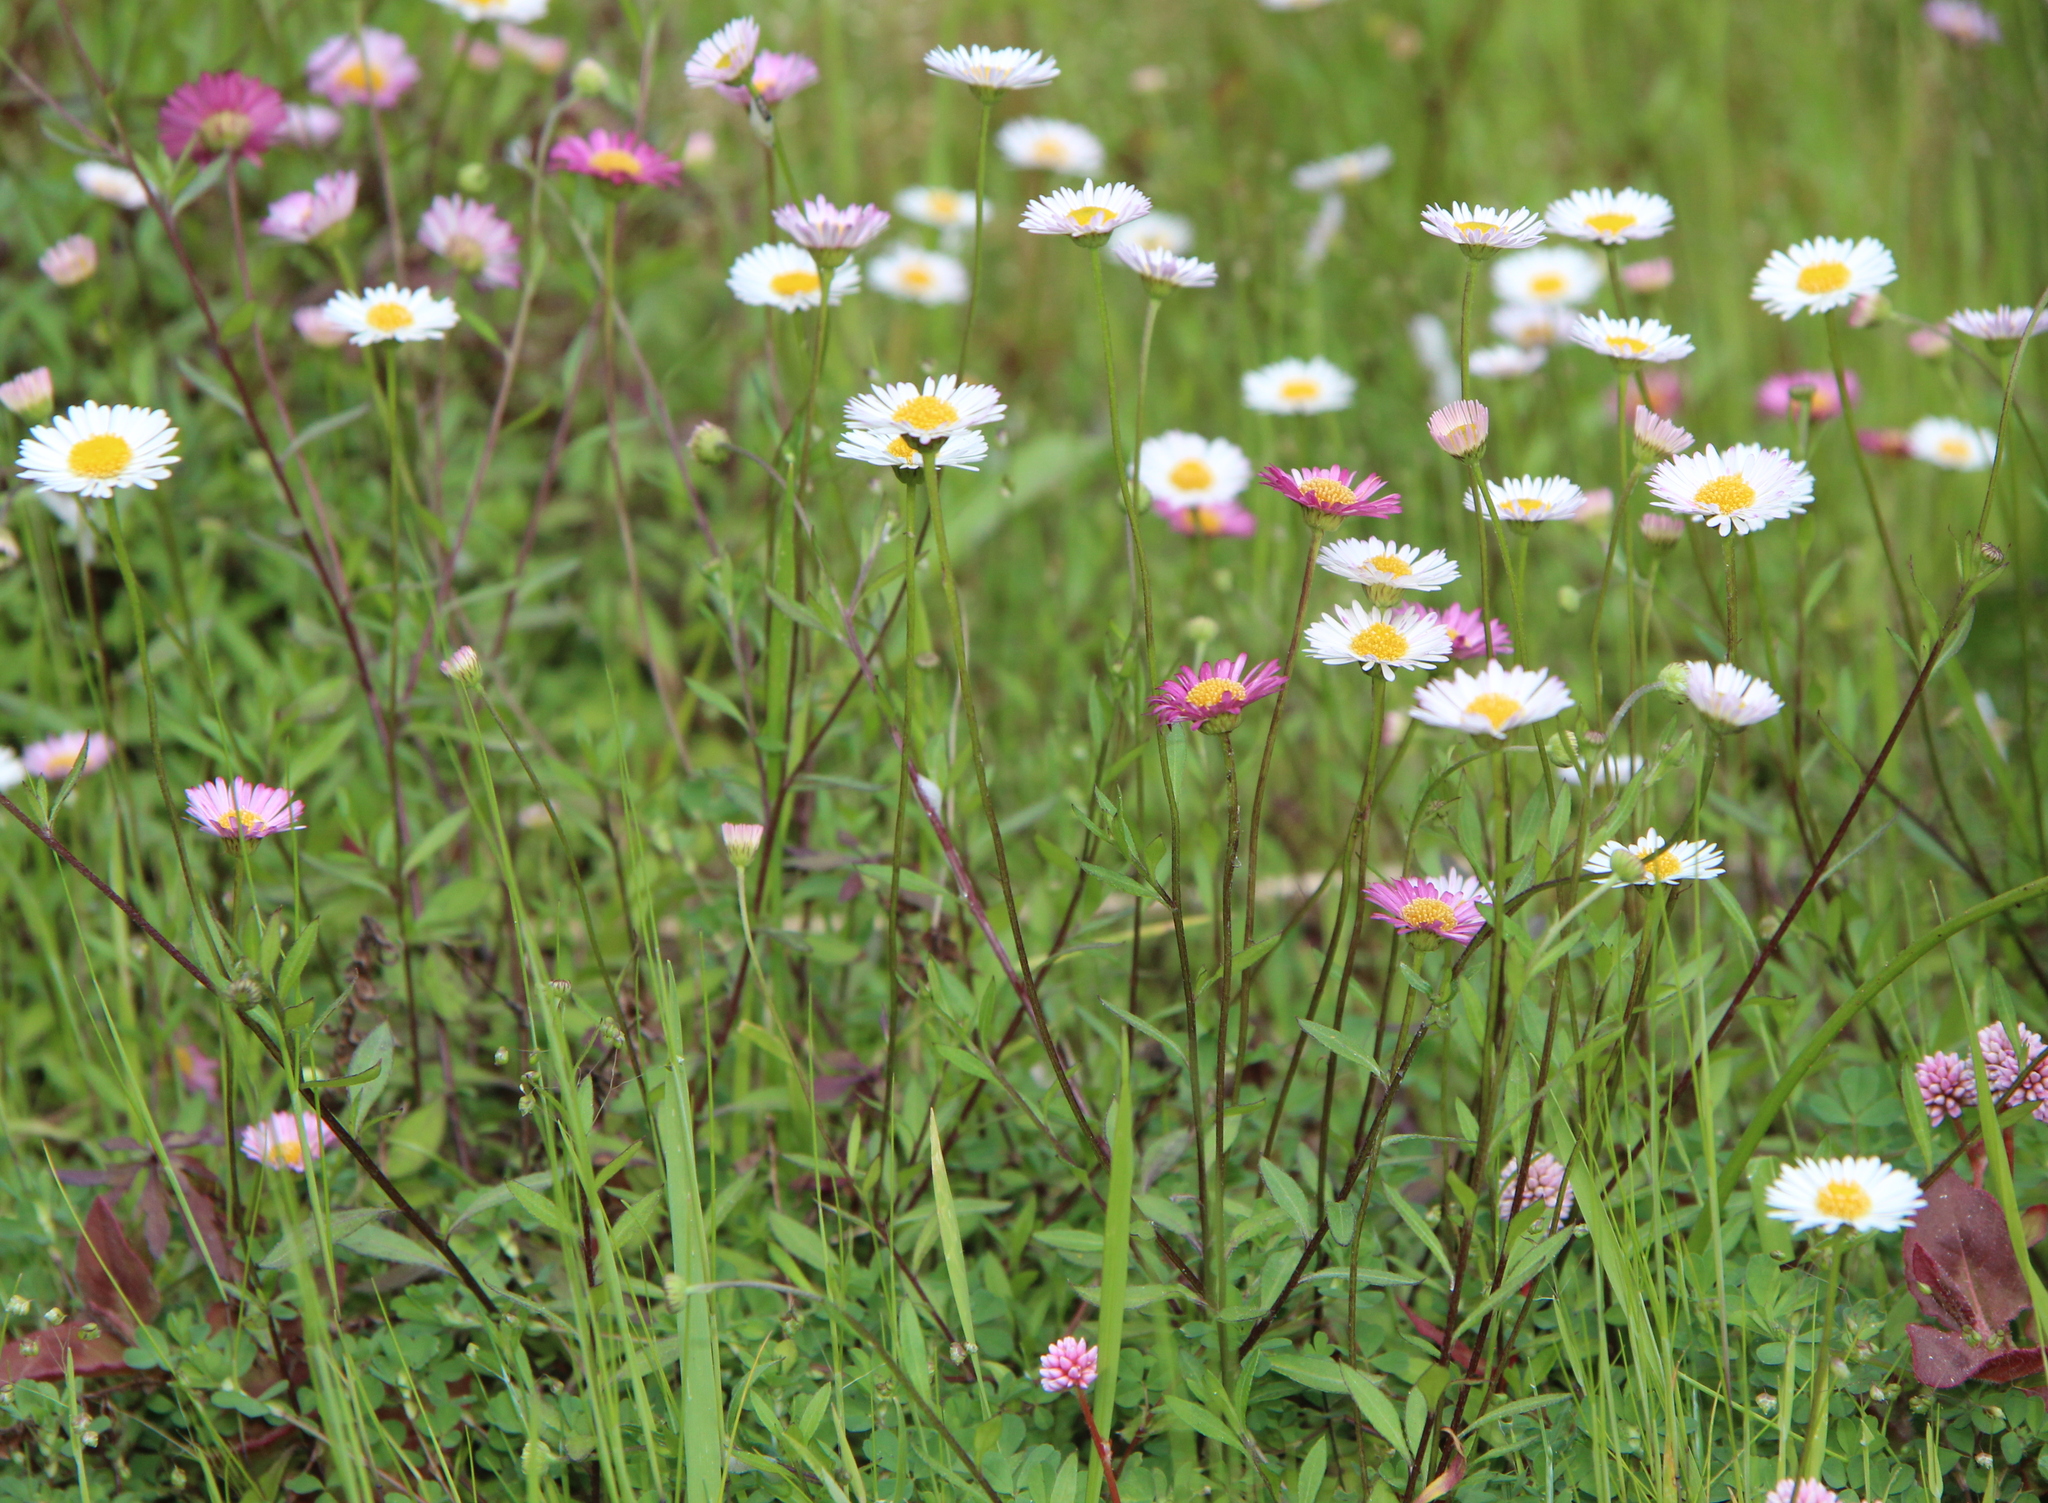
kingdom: Plantae
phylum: Tracheophyta
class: Magnoliopsida
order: Asterales
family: Asteraceae
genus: Erigeron
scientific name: Erigeron karvinskianus
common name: Mexican fleabane
